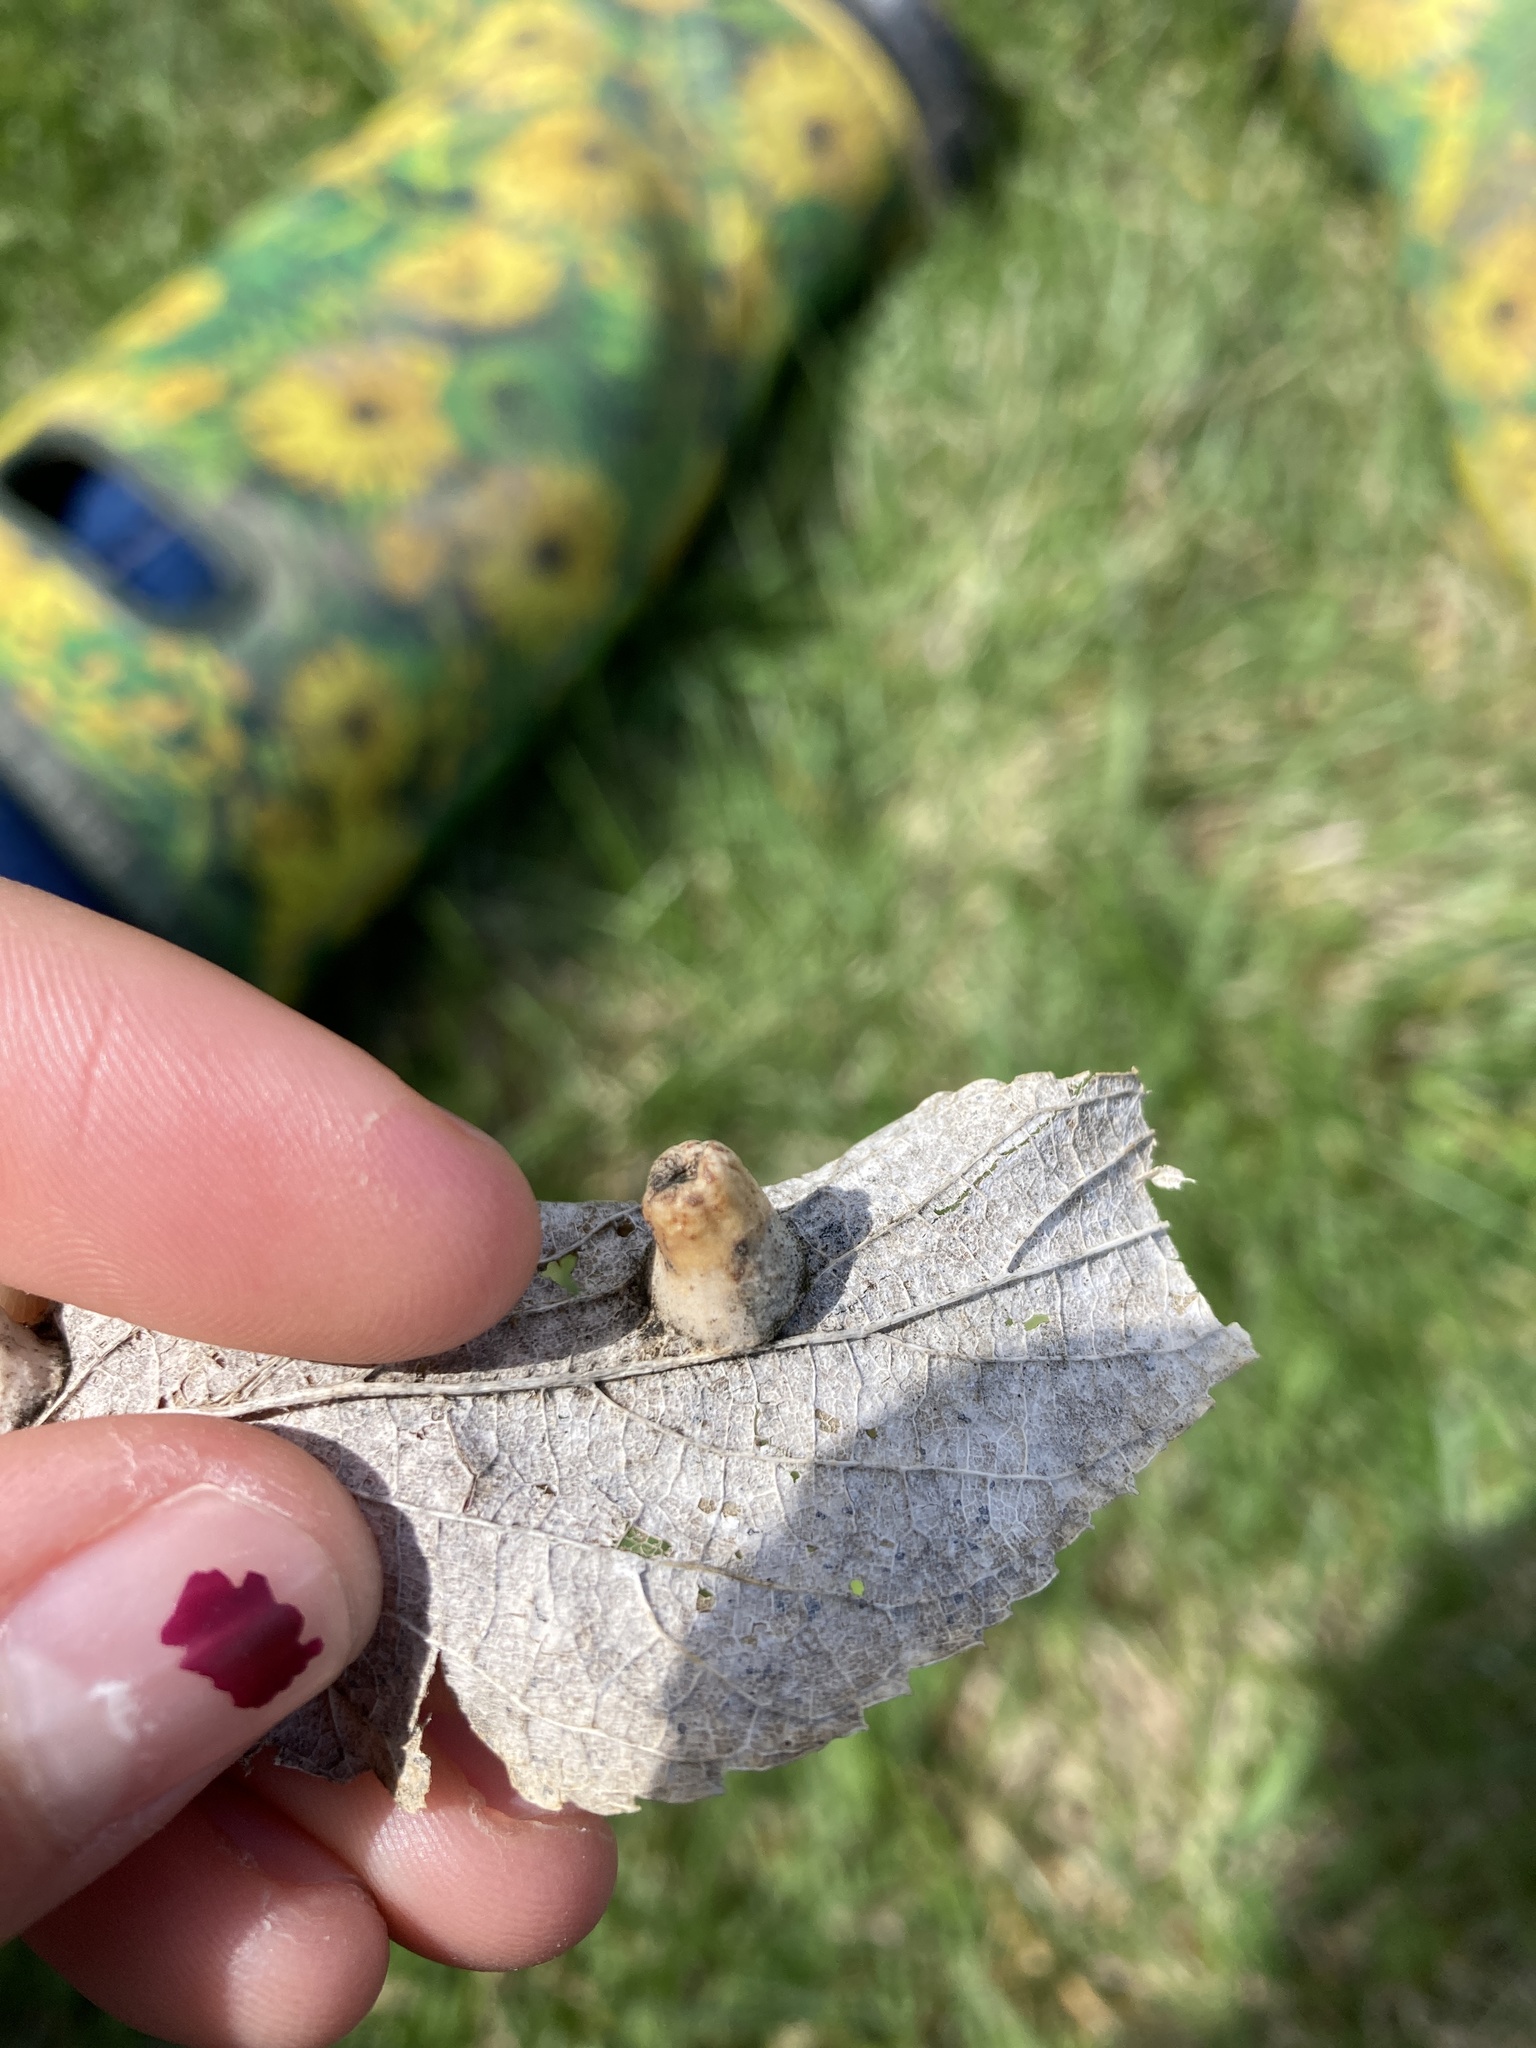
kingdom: Animalia
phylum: Arthropoda
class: Insecta
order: Hemiptera
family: Aphalaridae
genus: Pachypsylla
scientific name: Pachypsylla celtidismamma
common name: Hackberry nipplegall psyllid
